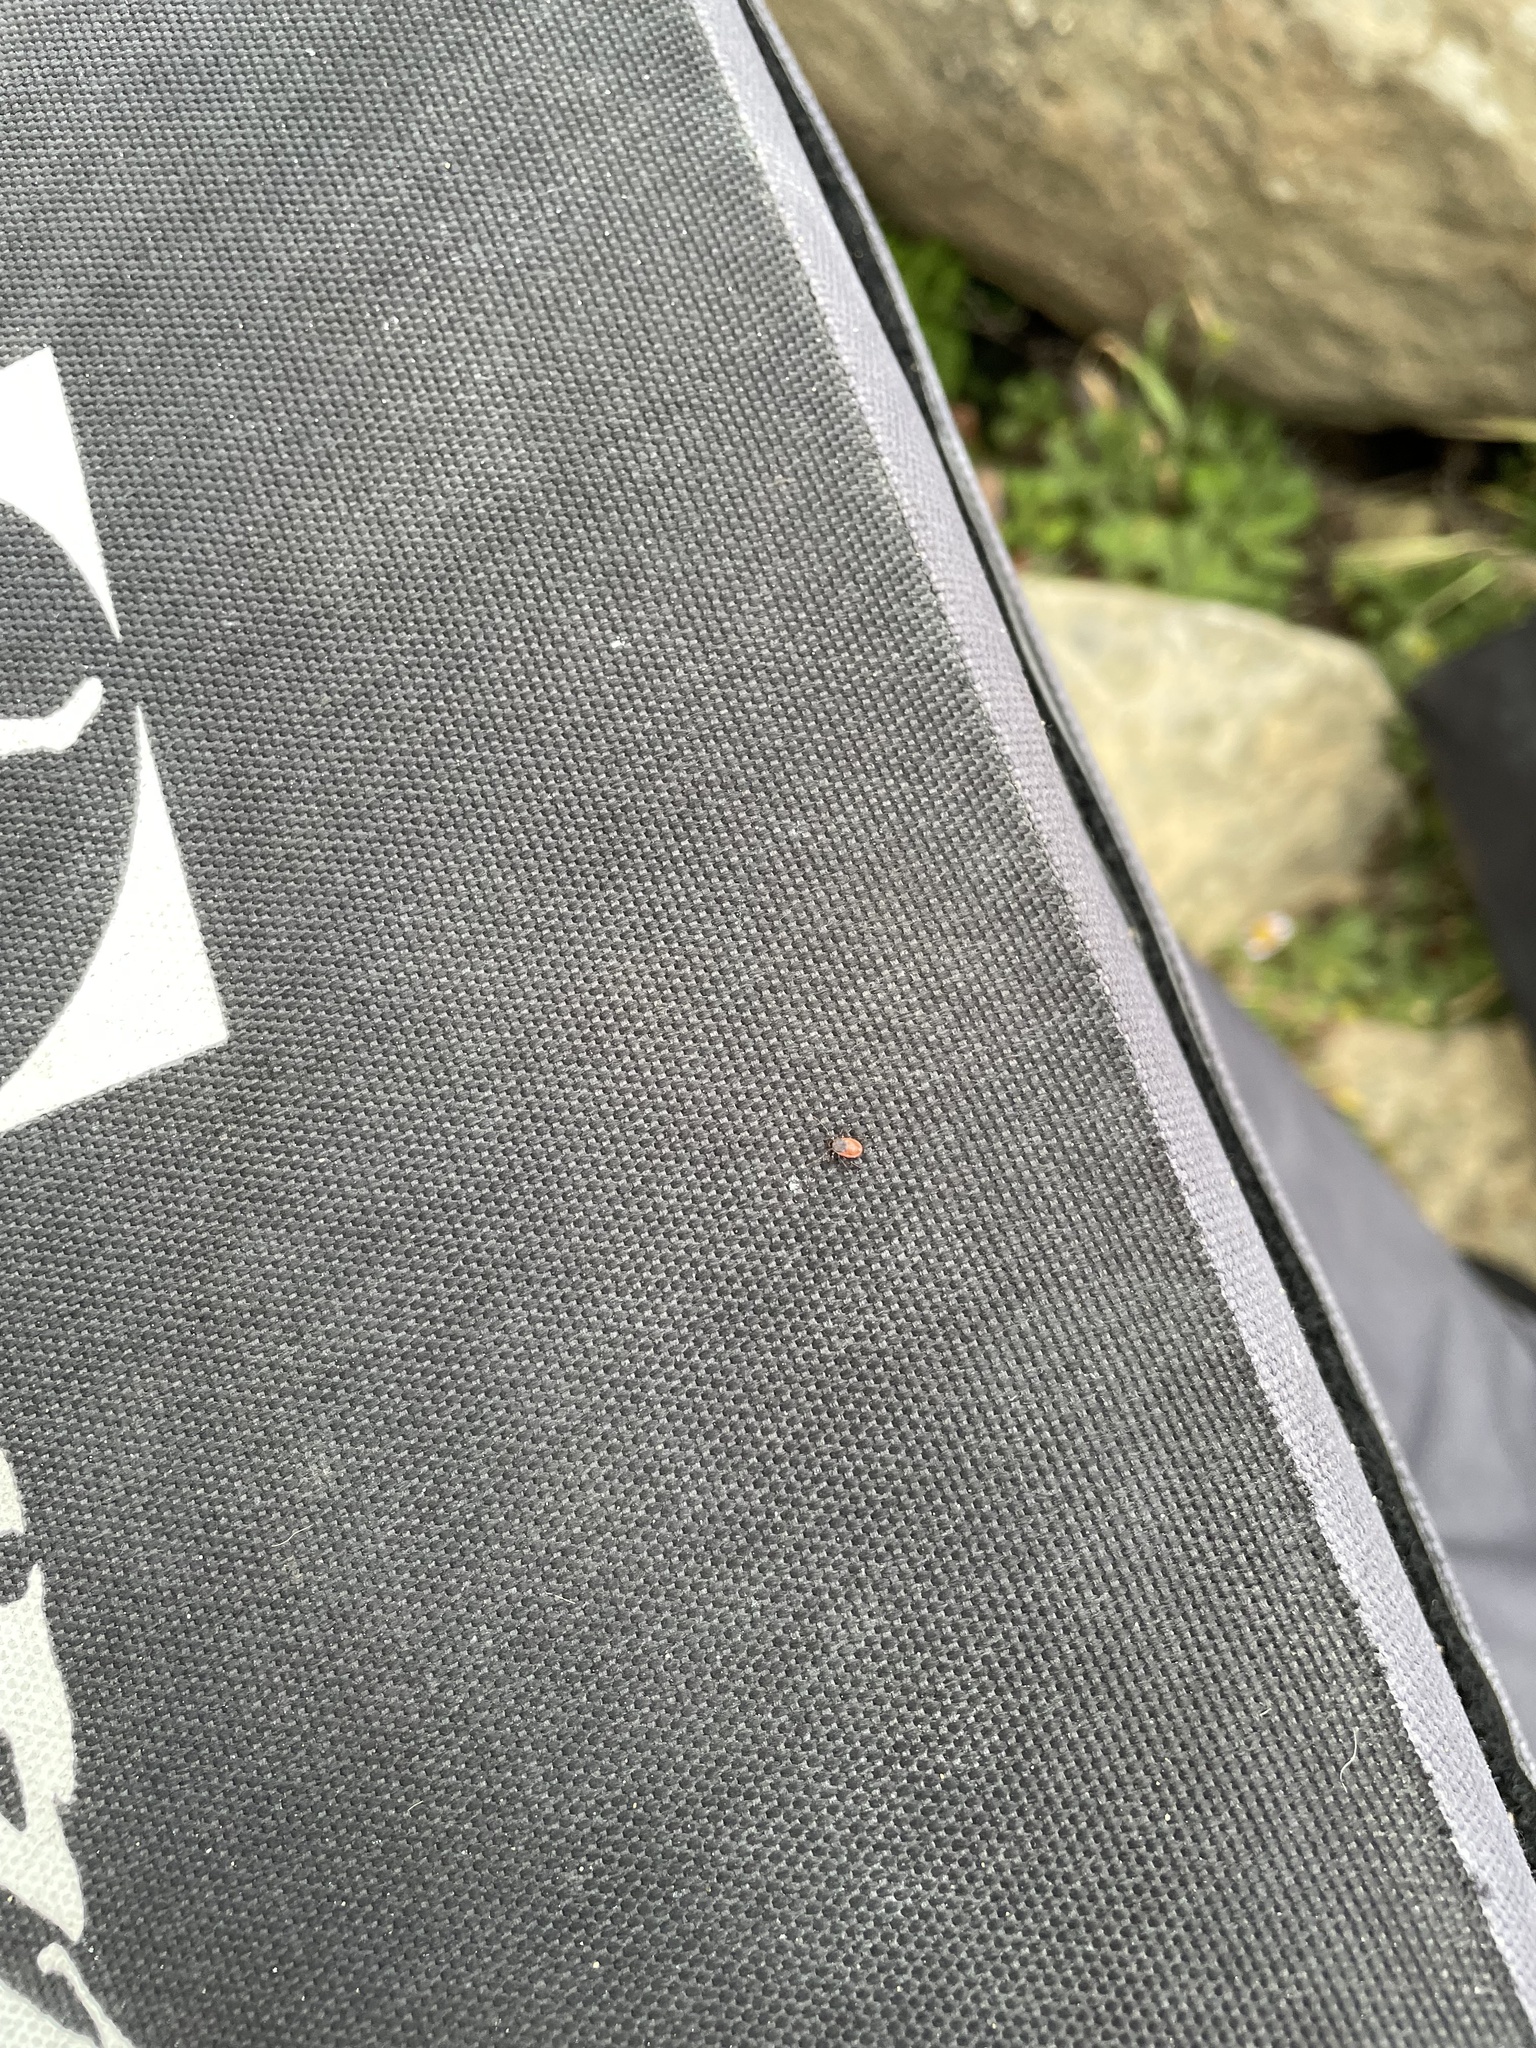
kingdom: Animalia
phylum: Arthropoda
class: Arachnida
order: Ixodida
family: Ixodidae
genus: Ixodes
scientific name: Ixodes pacificus
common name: California black-legged tick
